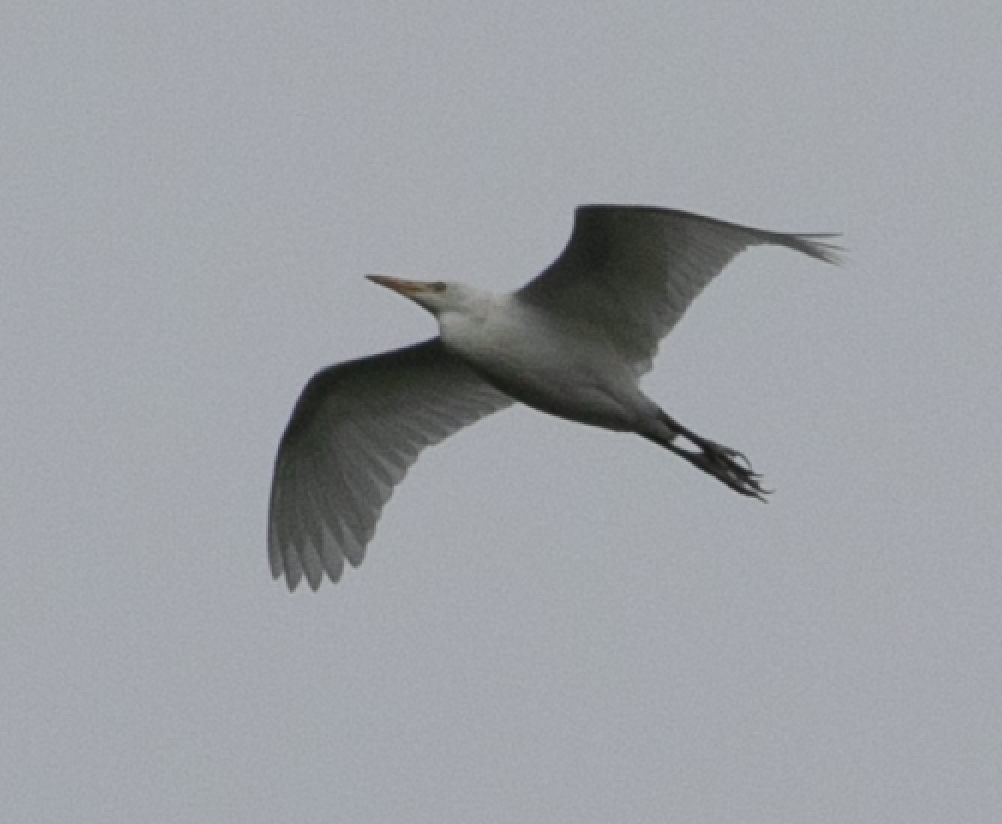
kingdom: Animalia
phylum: Chordata
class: Aves
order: Pelecaniformes
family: Ardeidae
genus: Bubulcus
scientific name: Bubulcus ibis
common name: Cattle egret
